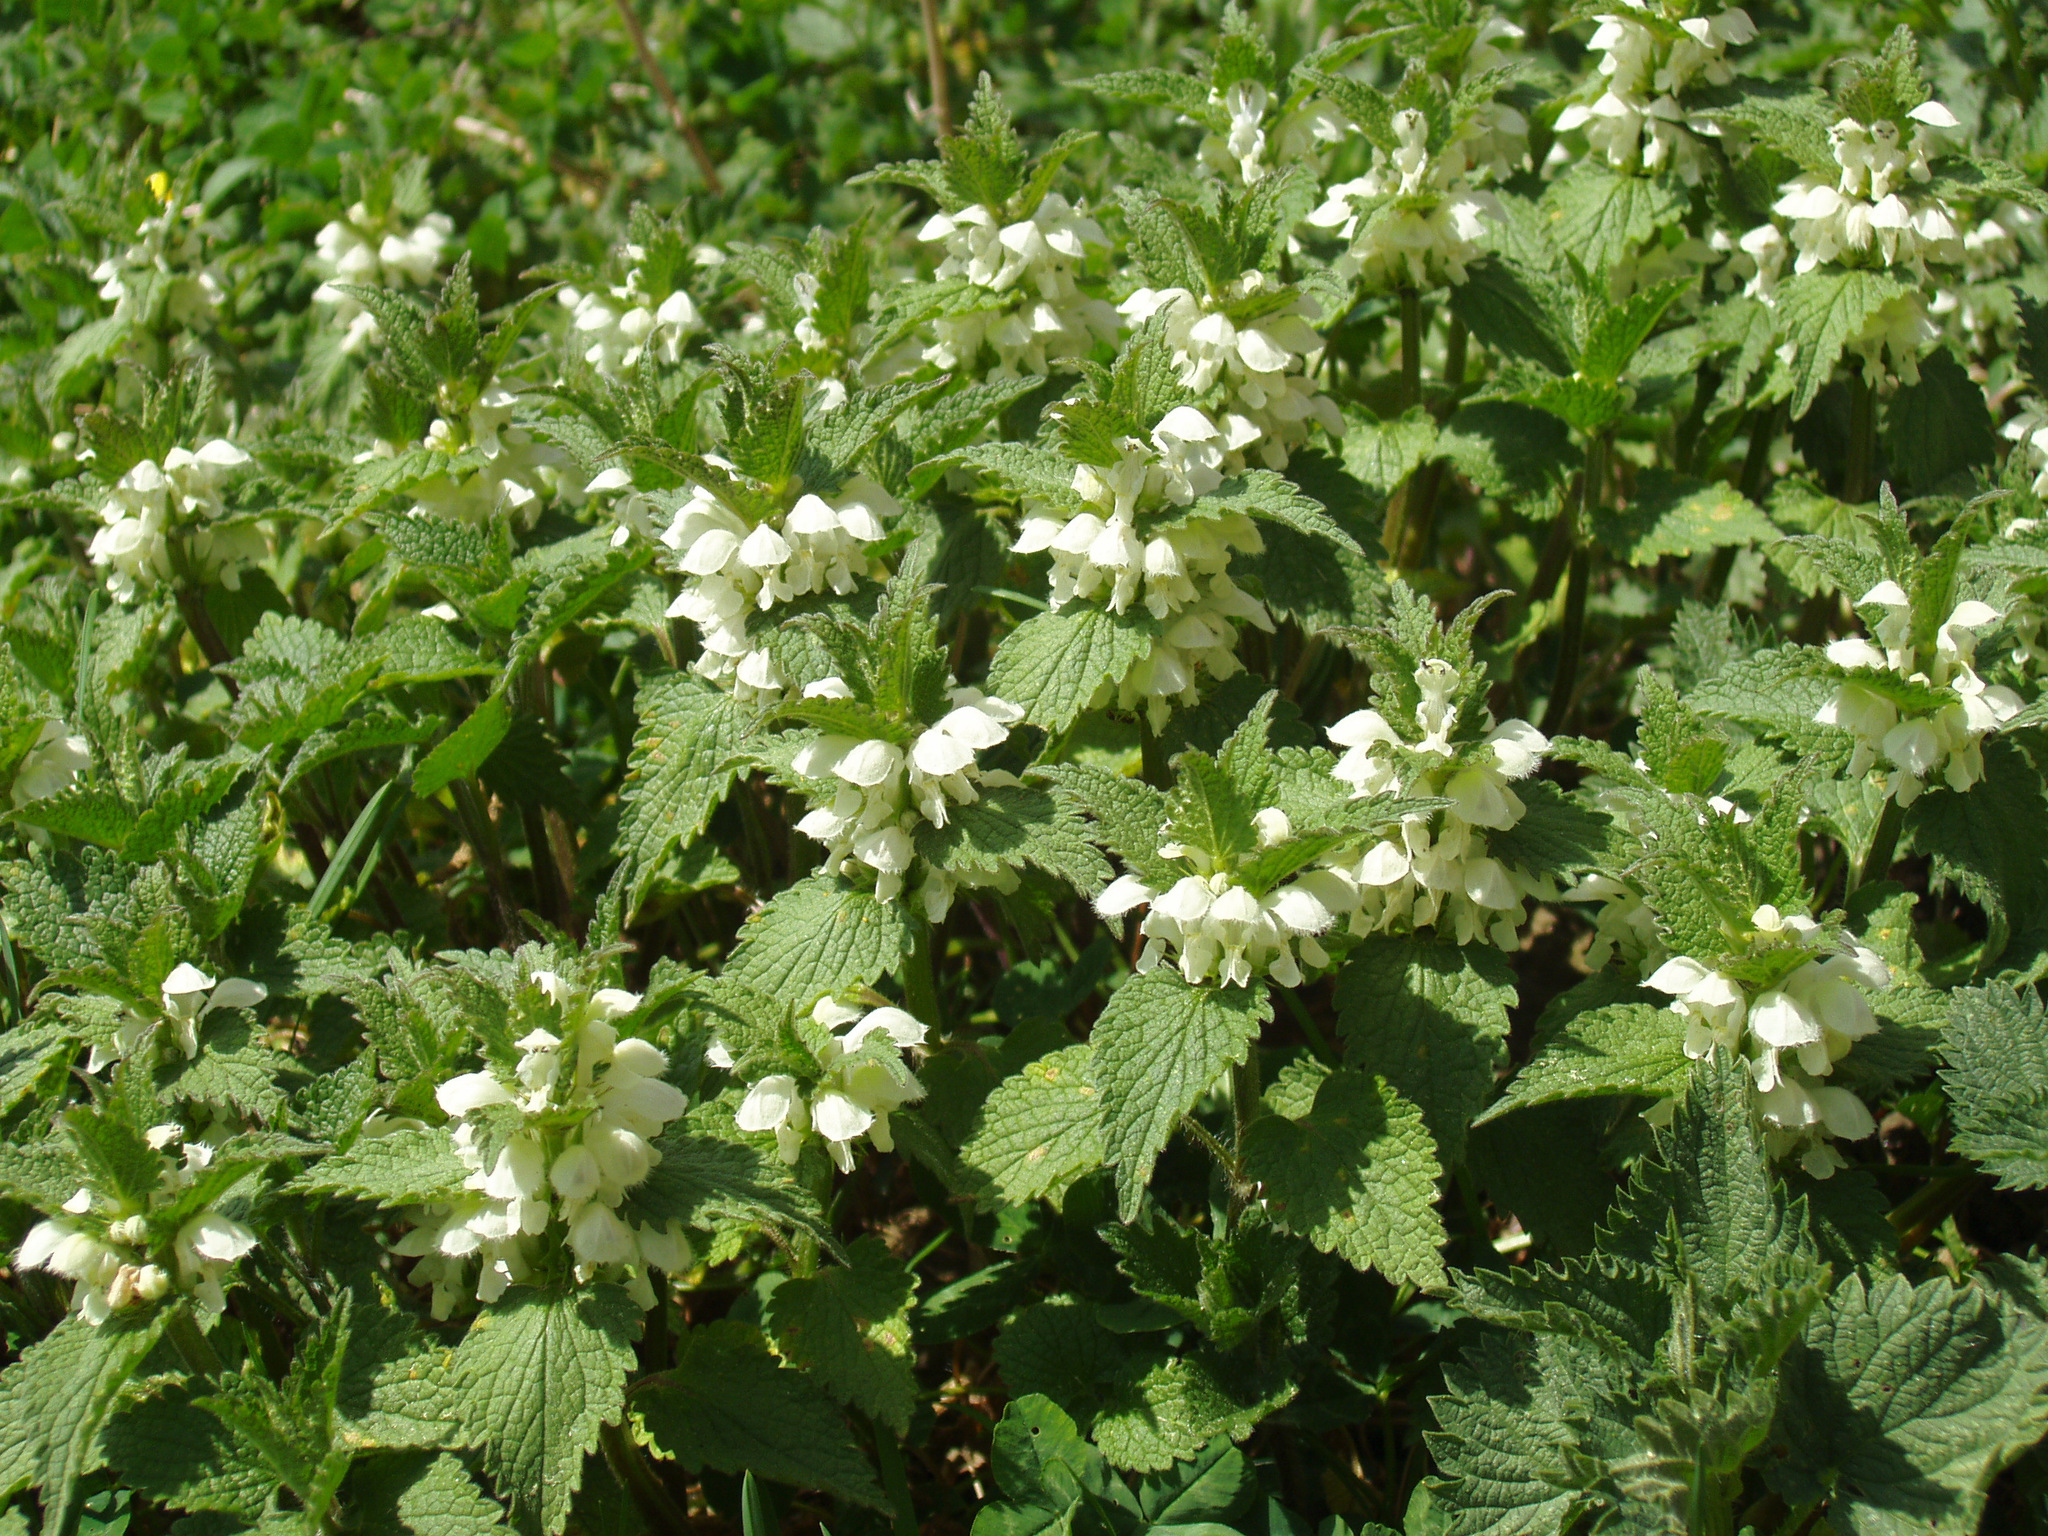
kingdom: Plantae
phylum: Tracheophyta
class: Magnoliopsida
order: Lamiales
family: Lamiaceae
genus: Lamium
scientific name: Lamium album
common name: White dead-nettle
